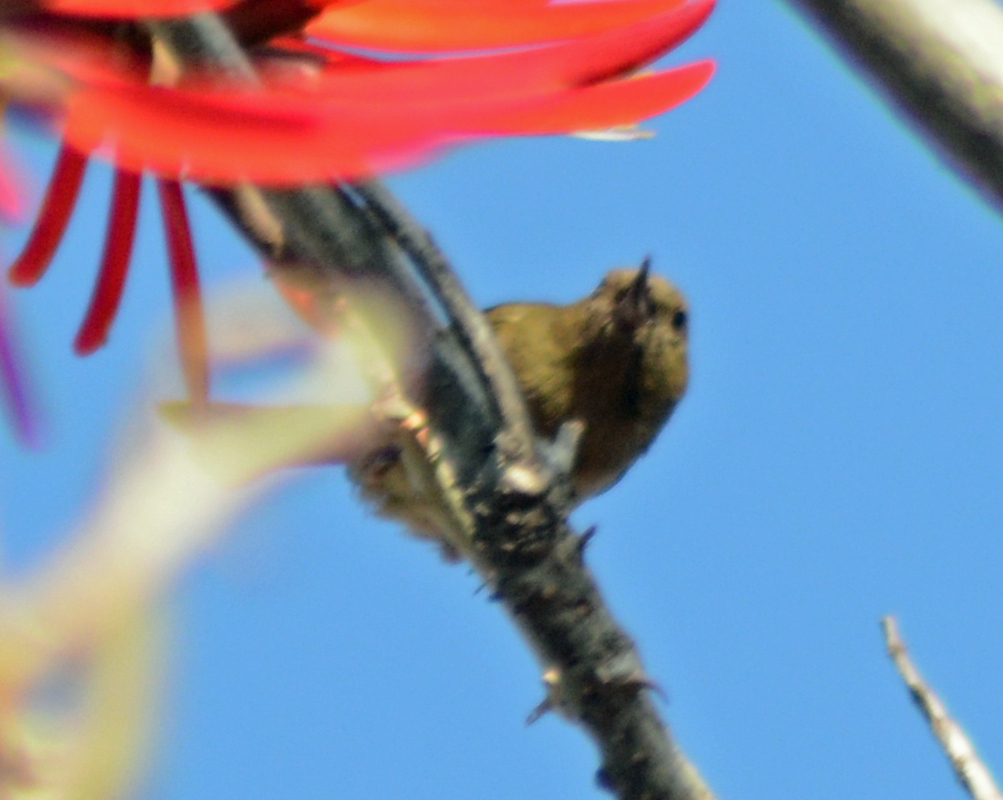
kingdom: Animalia
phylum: Chordata
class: Aves
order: Passeriformes
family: Thraupidae
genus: Diglossa
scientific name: Diglossa baritula
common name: Cinnamon-bellied flowerpiercer
